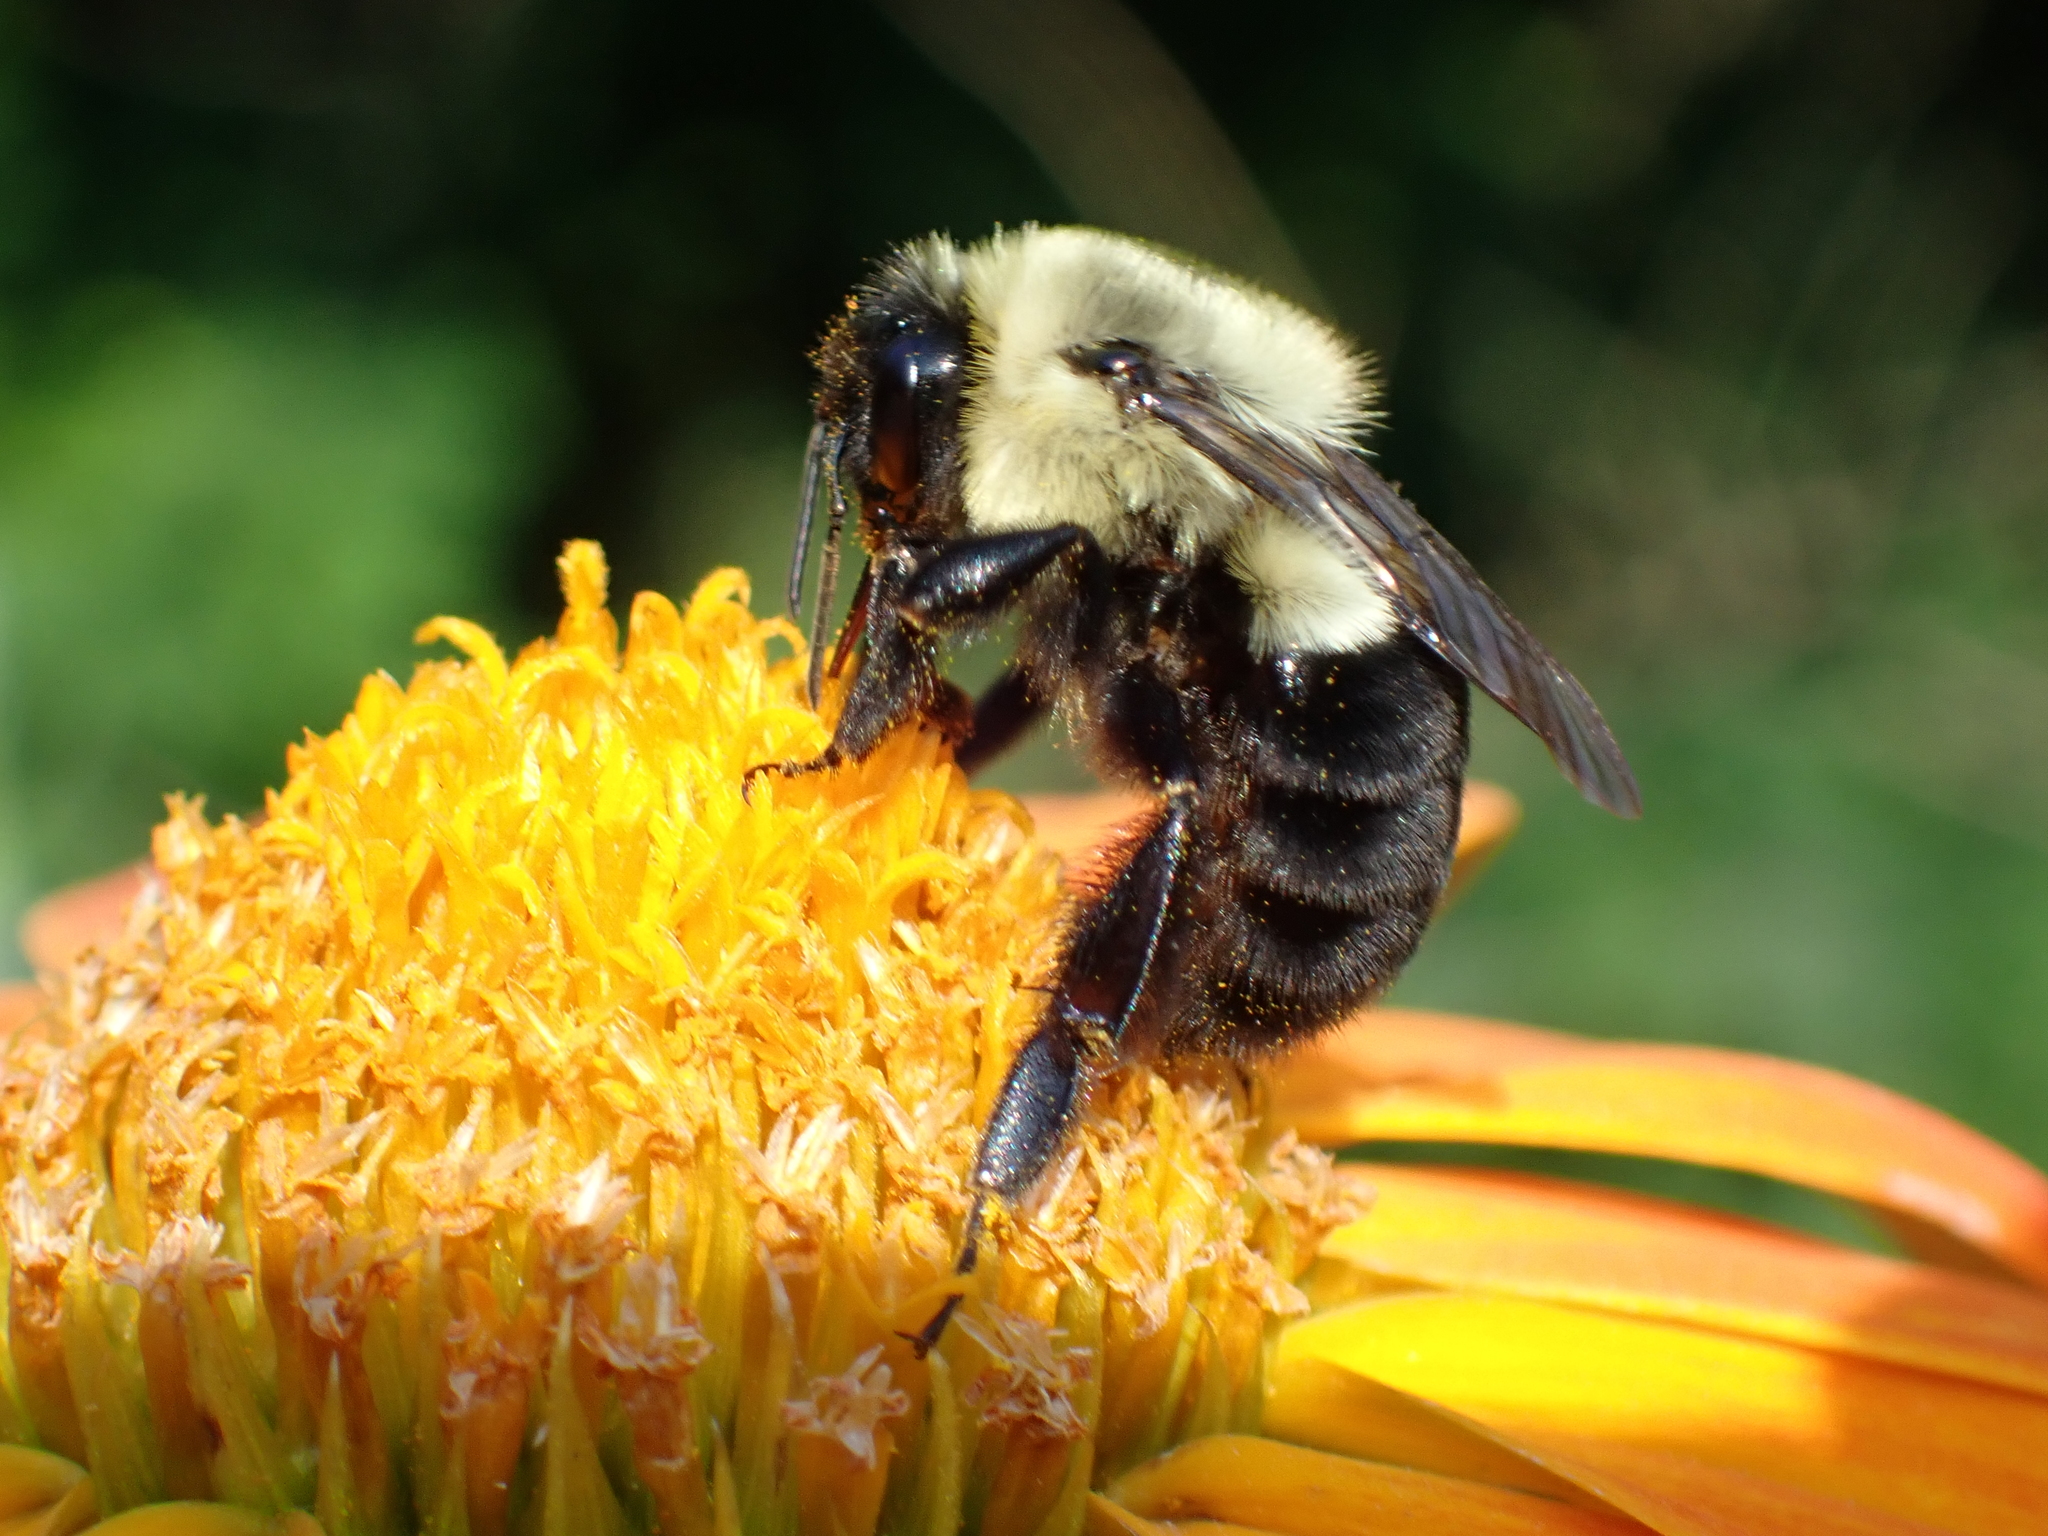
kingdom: Animalia
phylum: Arthropoda
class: Insecta
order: Hymenoptera
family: Apidae
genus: Bombus
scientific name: Bombus impatiens
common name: Common eastern bumble bee
